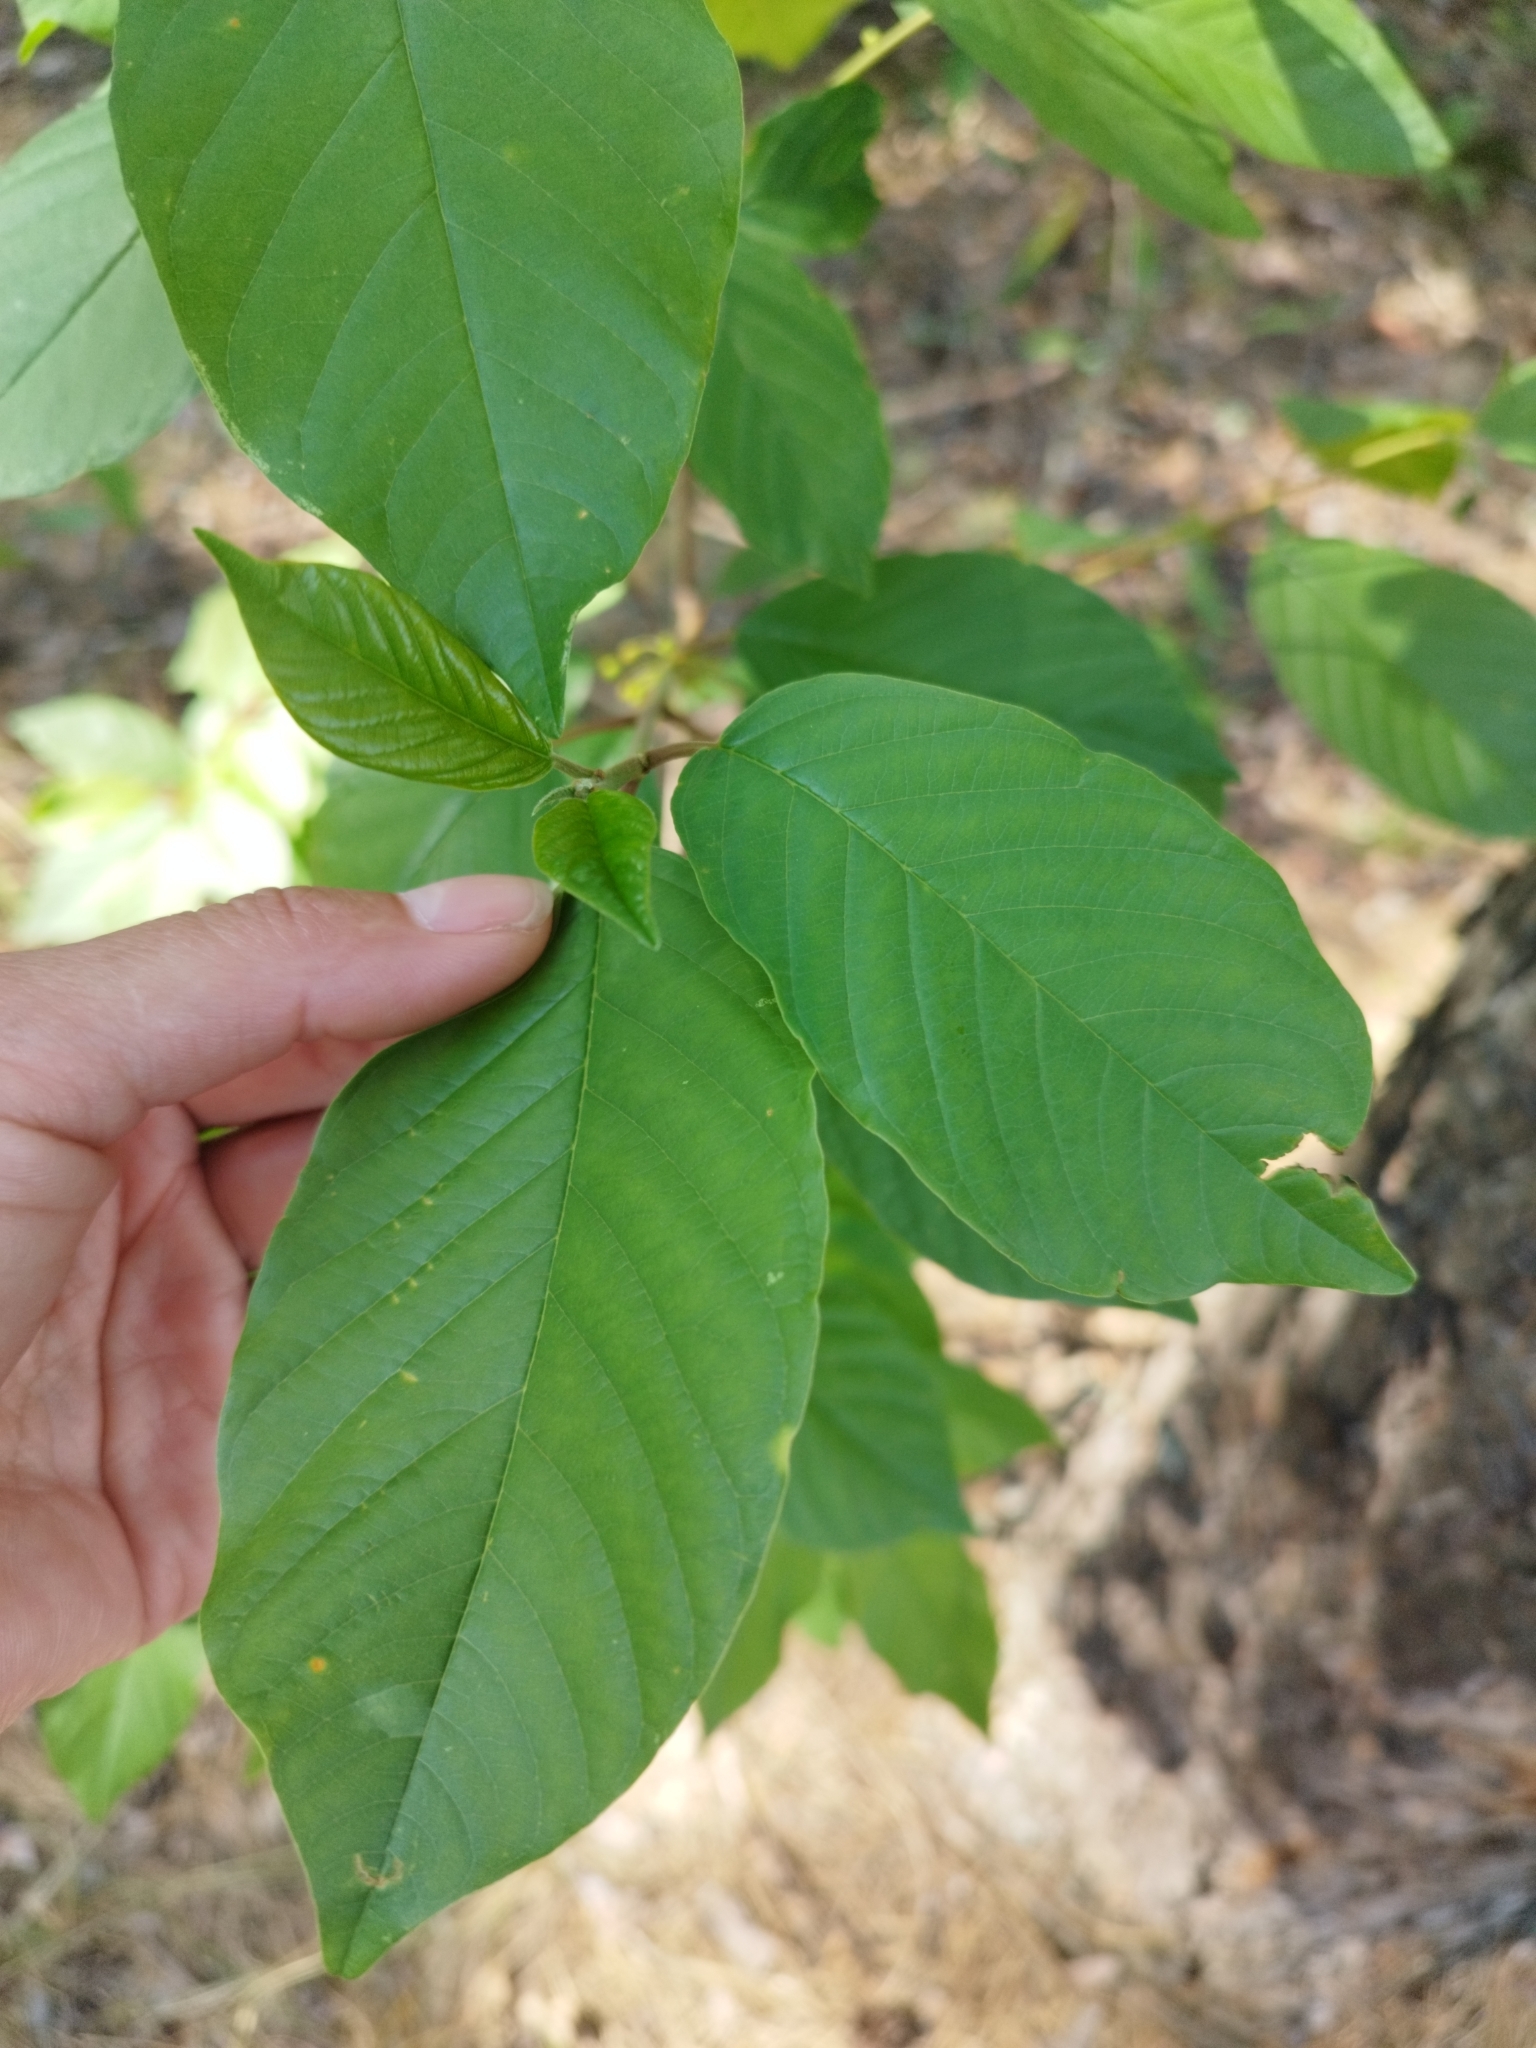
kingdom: Plantae
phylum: Tracheophyta
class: Magnoliopsida
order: Rosales
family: Rhamnaceae
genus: Frangula
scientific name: Frangula alnus
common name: Alder buckthorn
